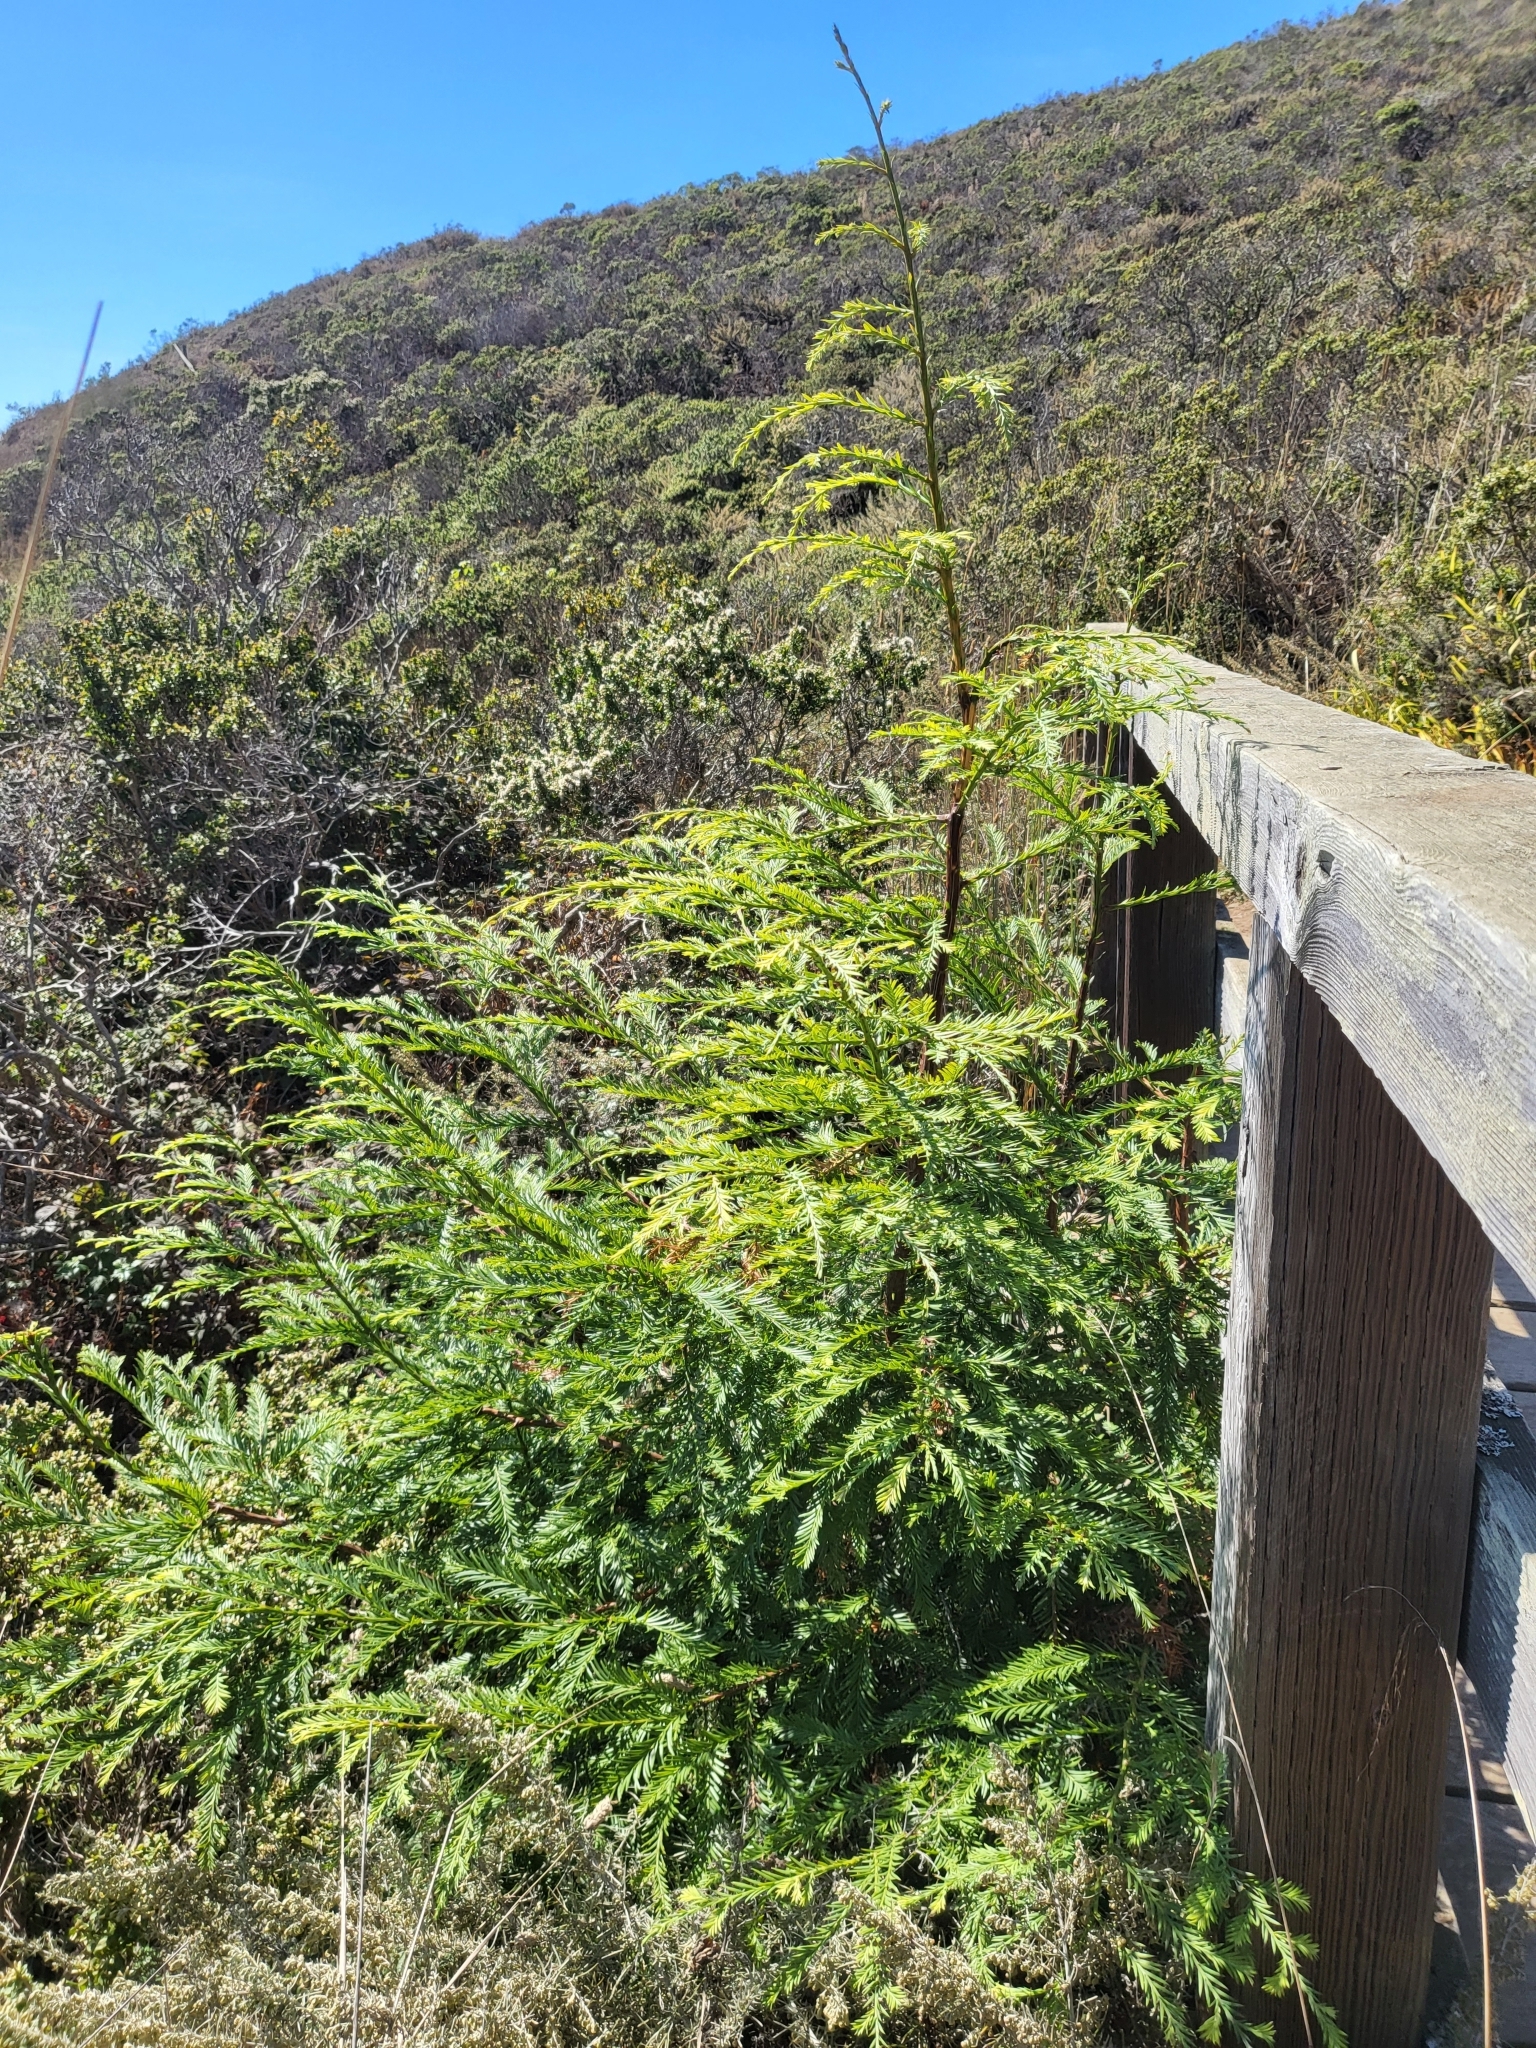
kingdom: Plantae
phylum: Tracheophyta
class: Pinopsida
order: Pinales
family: Cupressaceae
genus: Sequoia
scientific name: Sequoia sempervirens
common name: Coast redwood
